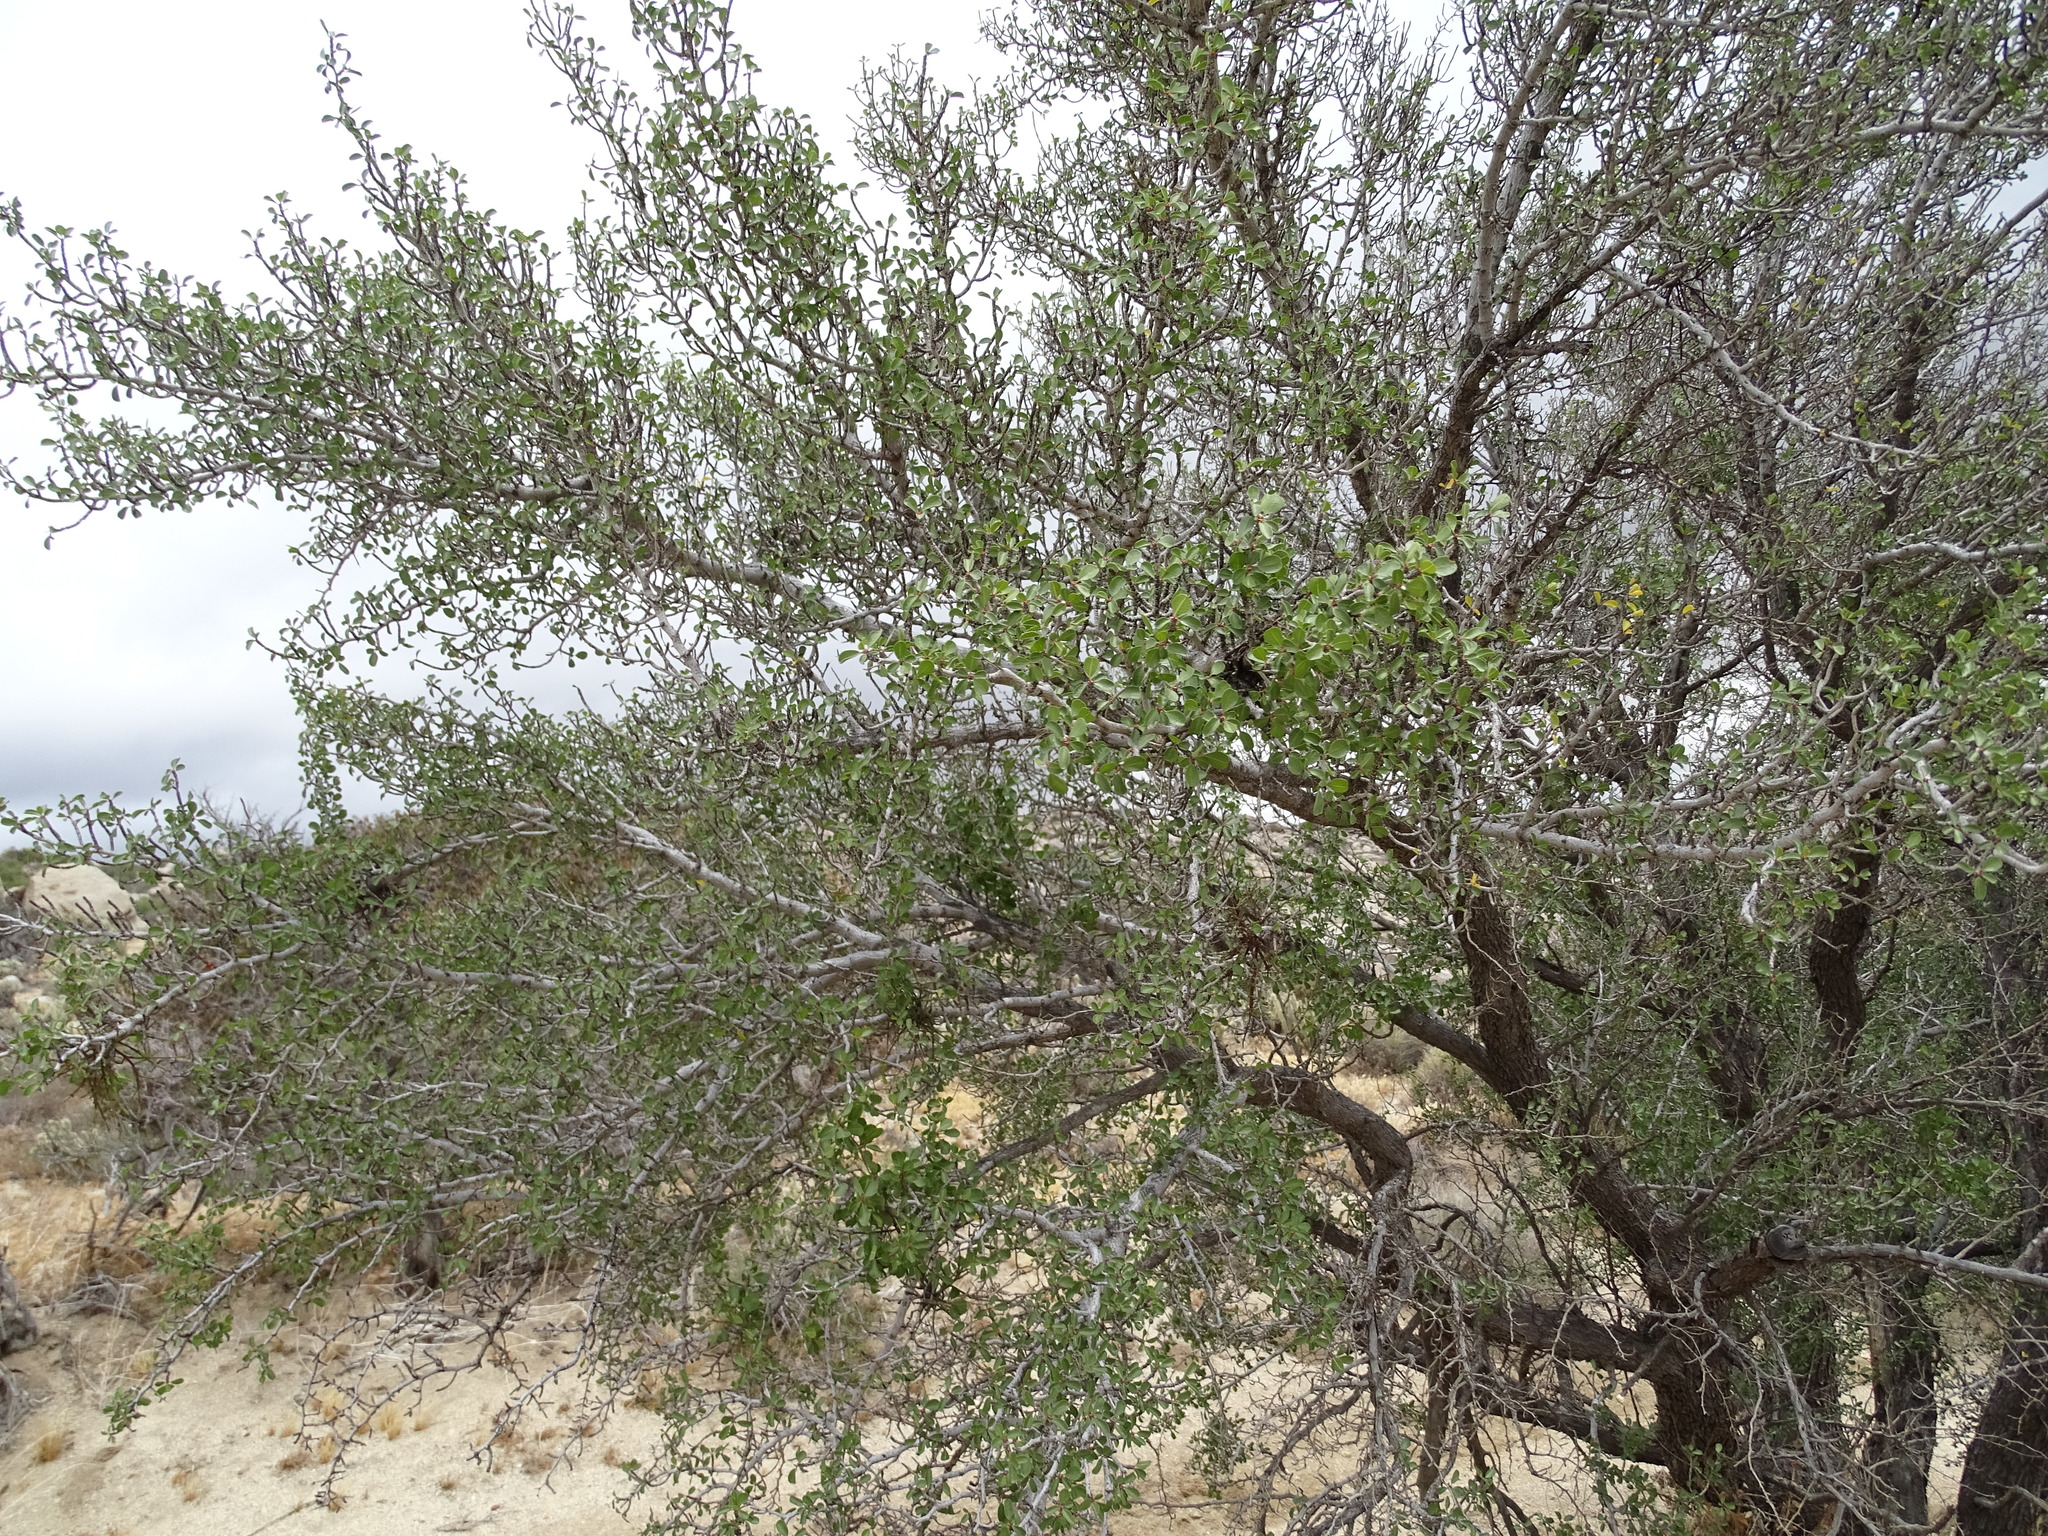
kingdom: Plantae
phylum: Tracheophyta
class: Magnoliopsida
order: Rosales
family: Rosaceae
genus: Prunus
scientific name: Prunus fremontii
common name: Desert apricot
